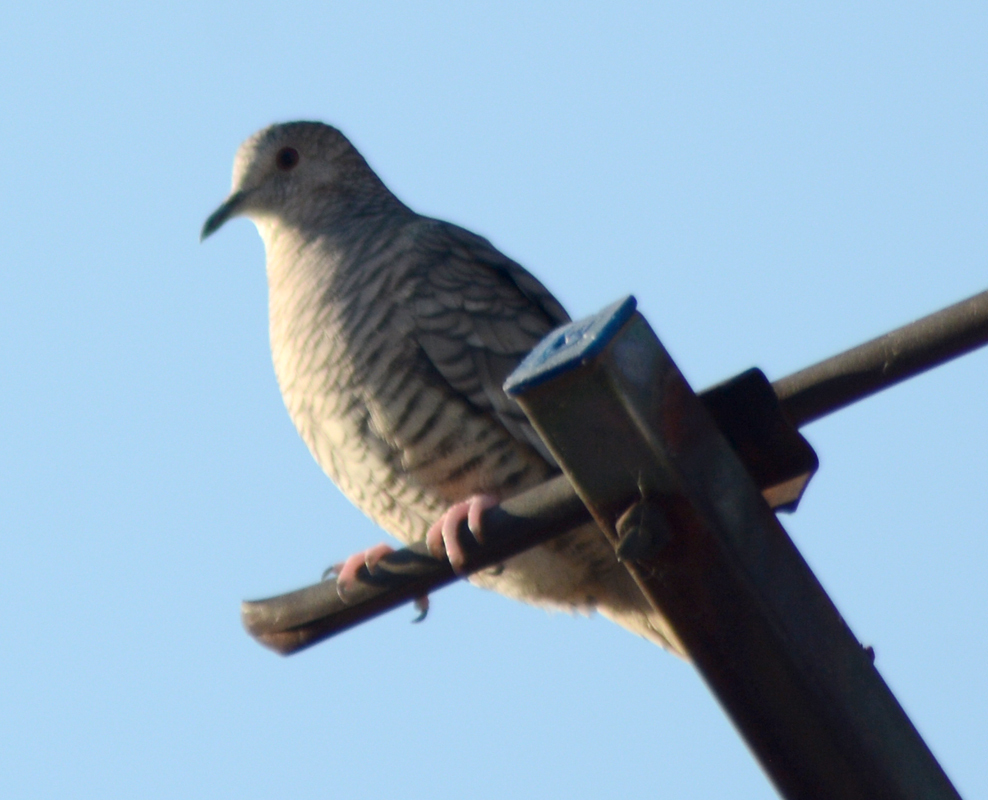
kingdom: Animalia
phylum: Chordata
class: Aves
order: Columbiformes
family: Columbidae
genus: Columbina
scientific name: Columbina inca
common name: Inca dove
